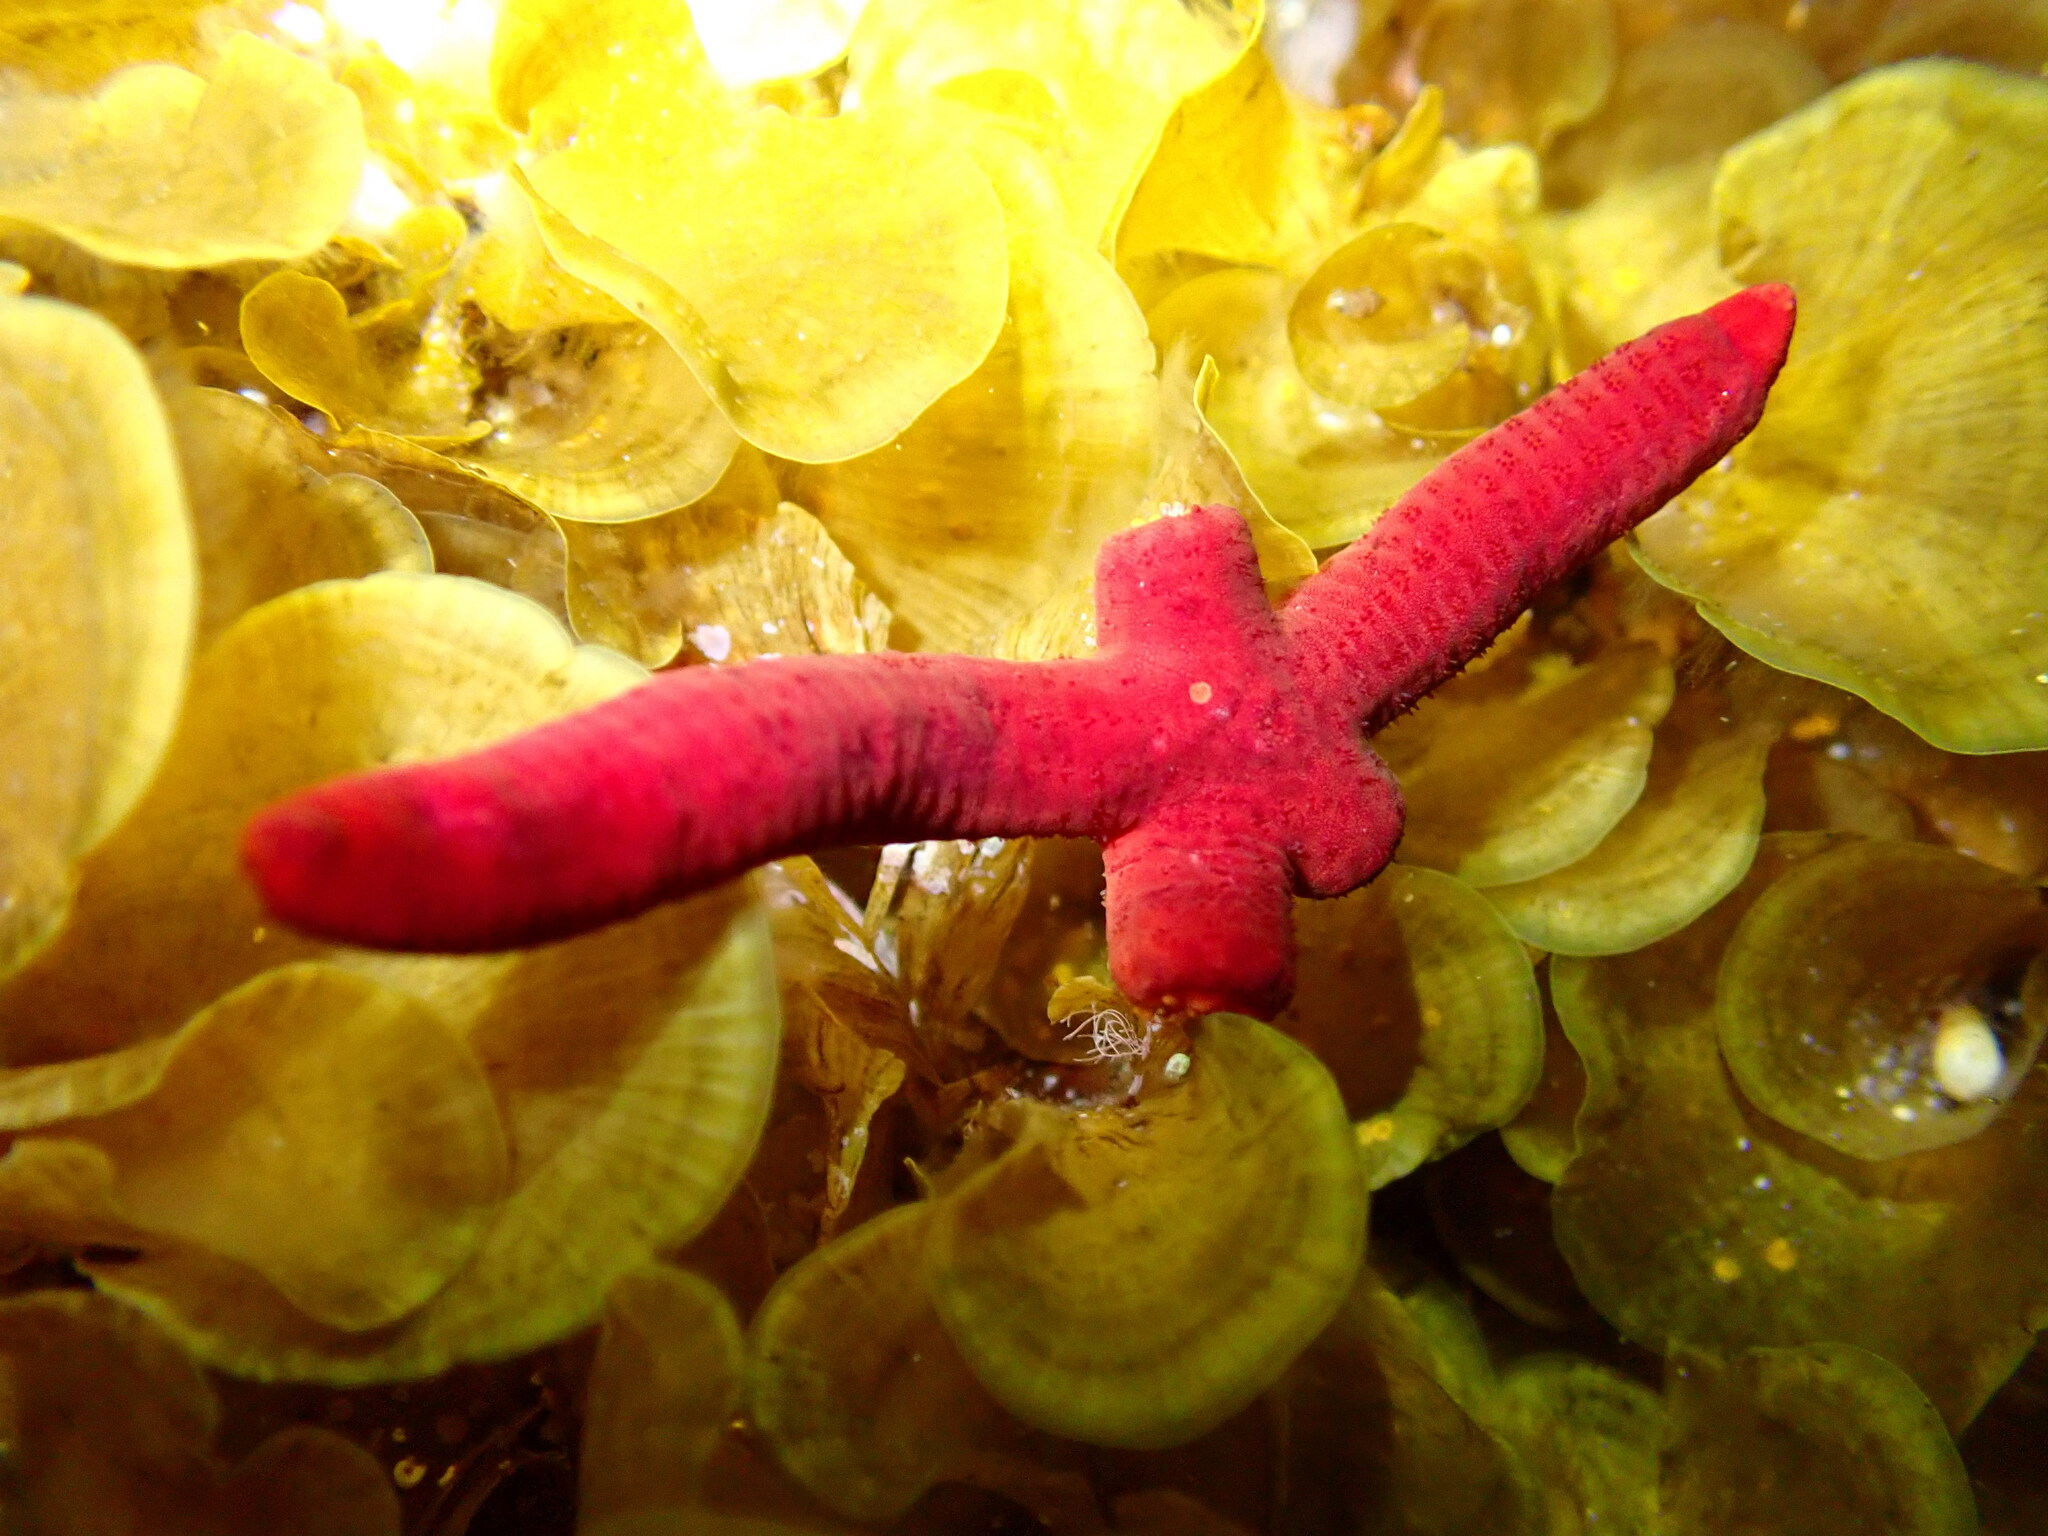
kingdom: Animalia
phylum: Echinodermata
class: Asteroidea
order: Valvatida
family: Ophidiasteridae
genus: Ophidiaster
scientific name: Ophidiaster ophidianus
